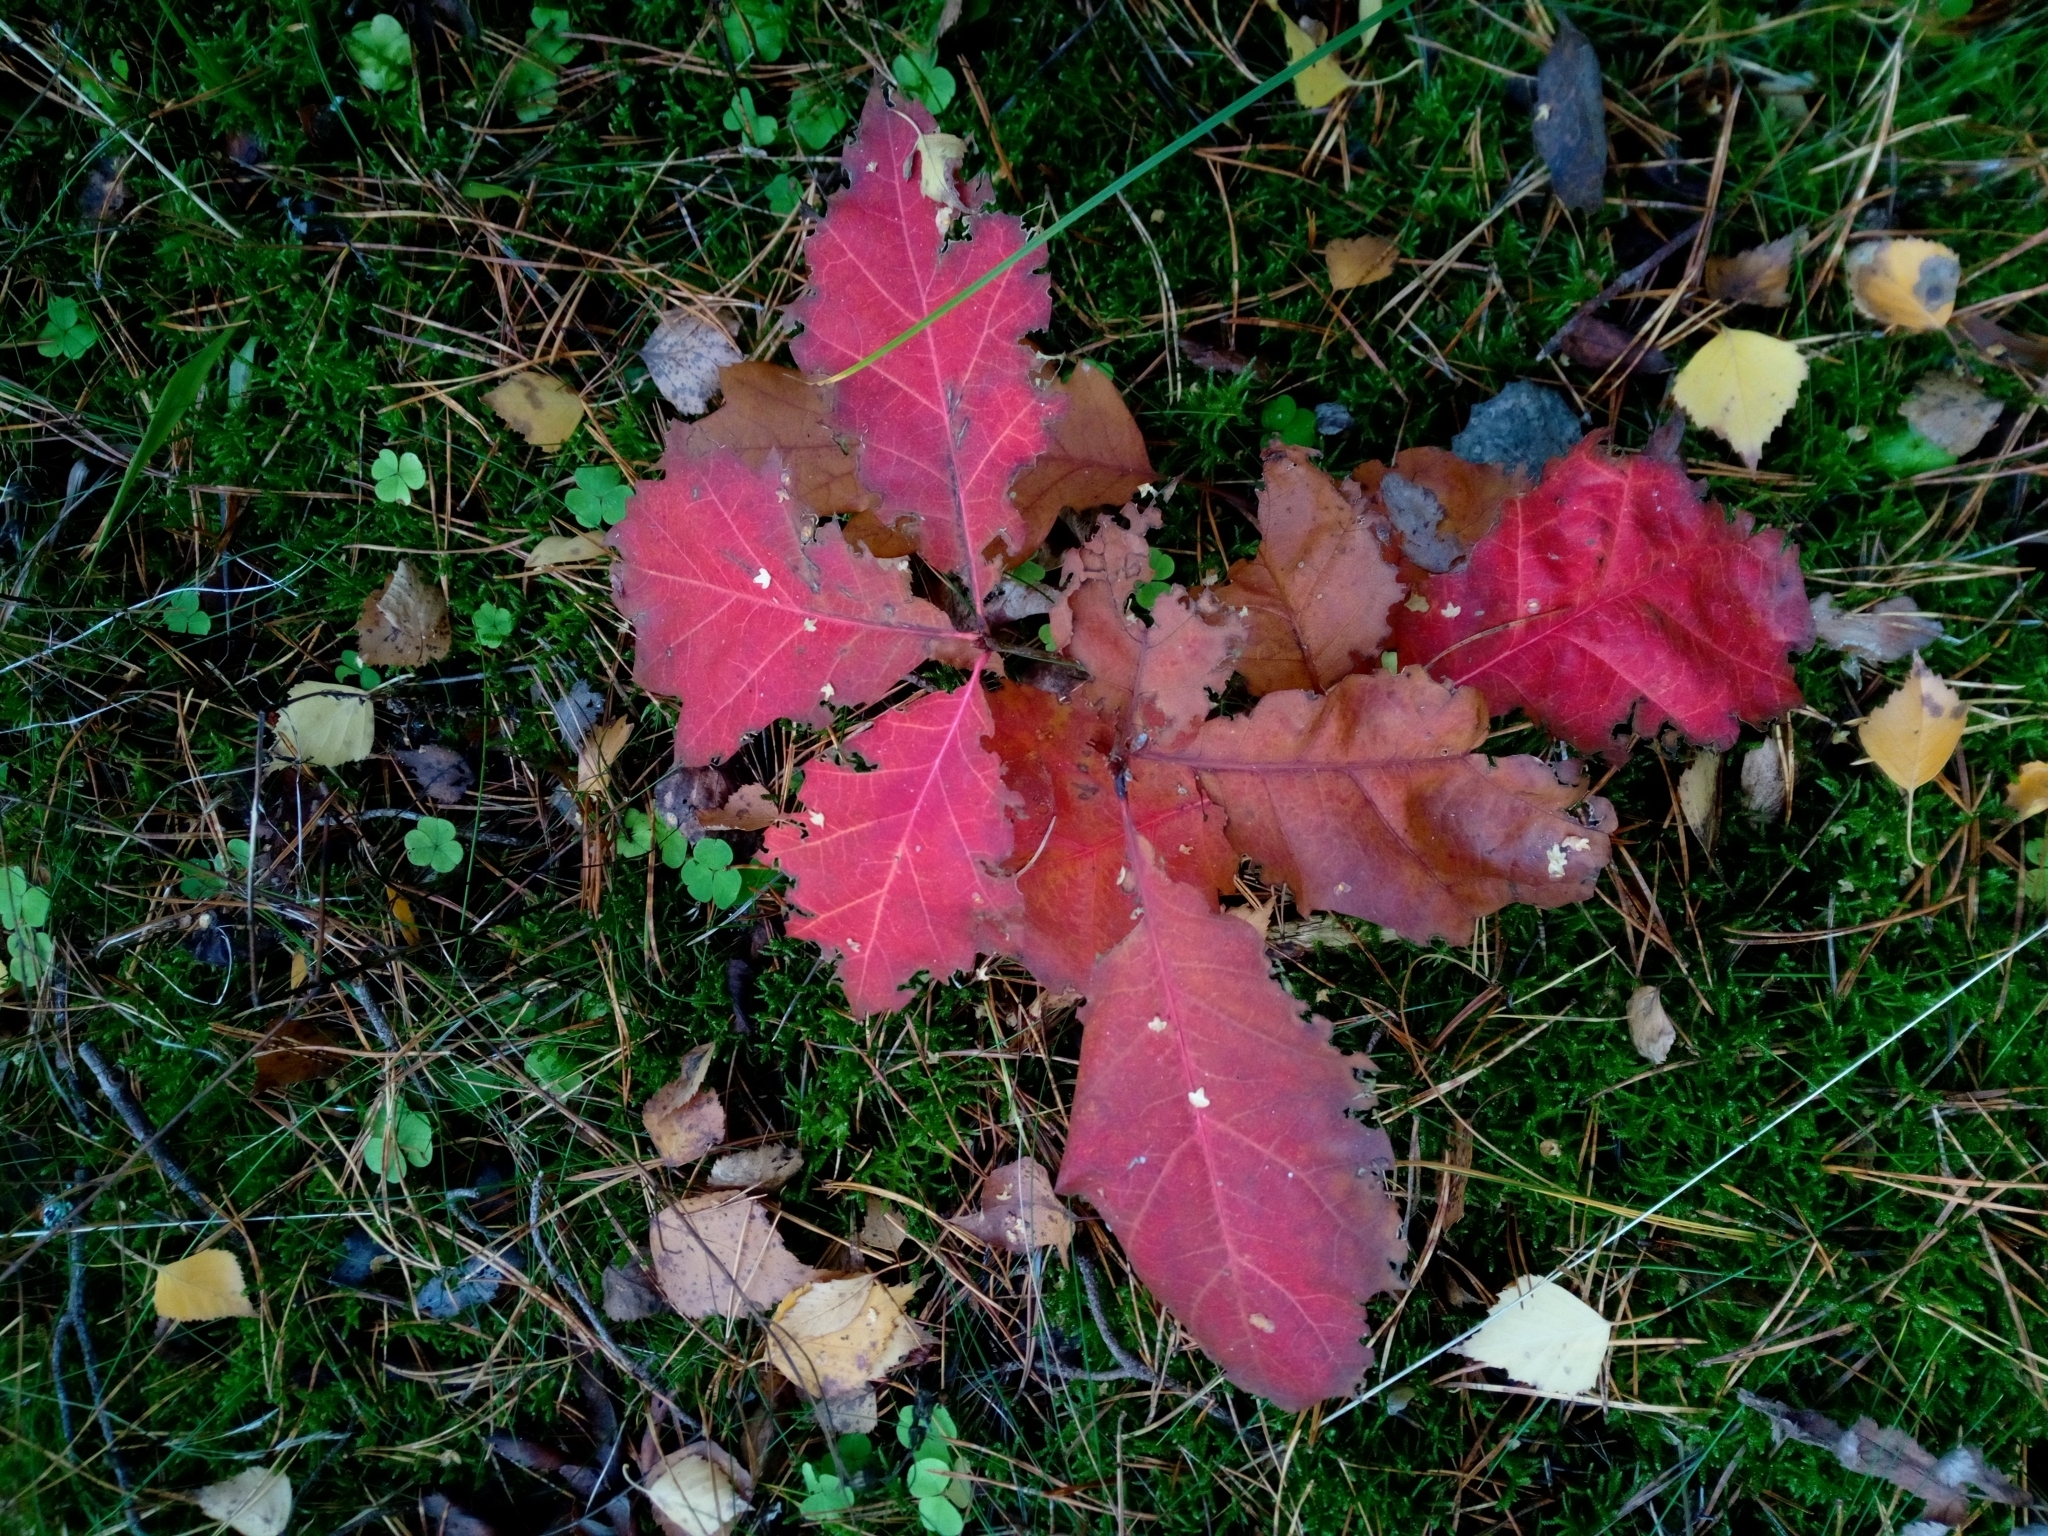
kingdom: Plantae
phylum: Tracheophyta
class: Magnoliopsida
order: Fagales
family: Fagaceae
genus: Quercus
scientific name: Quercus rubra
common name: Red oak
